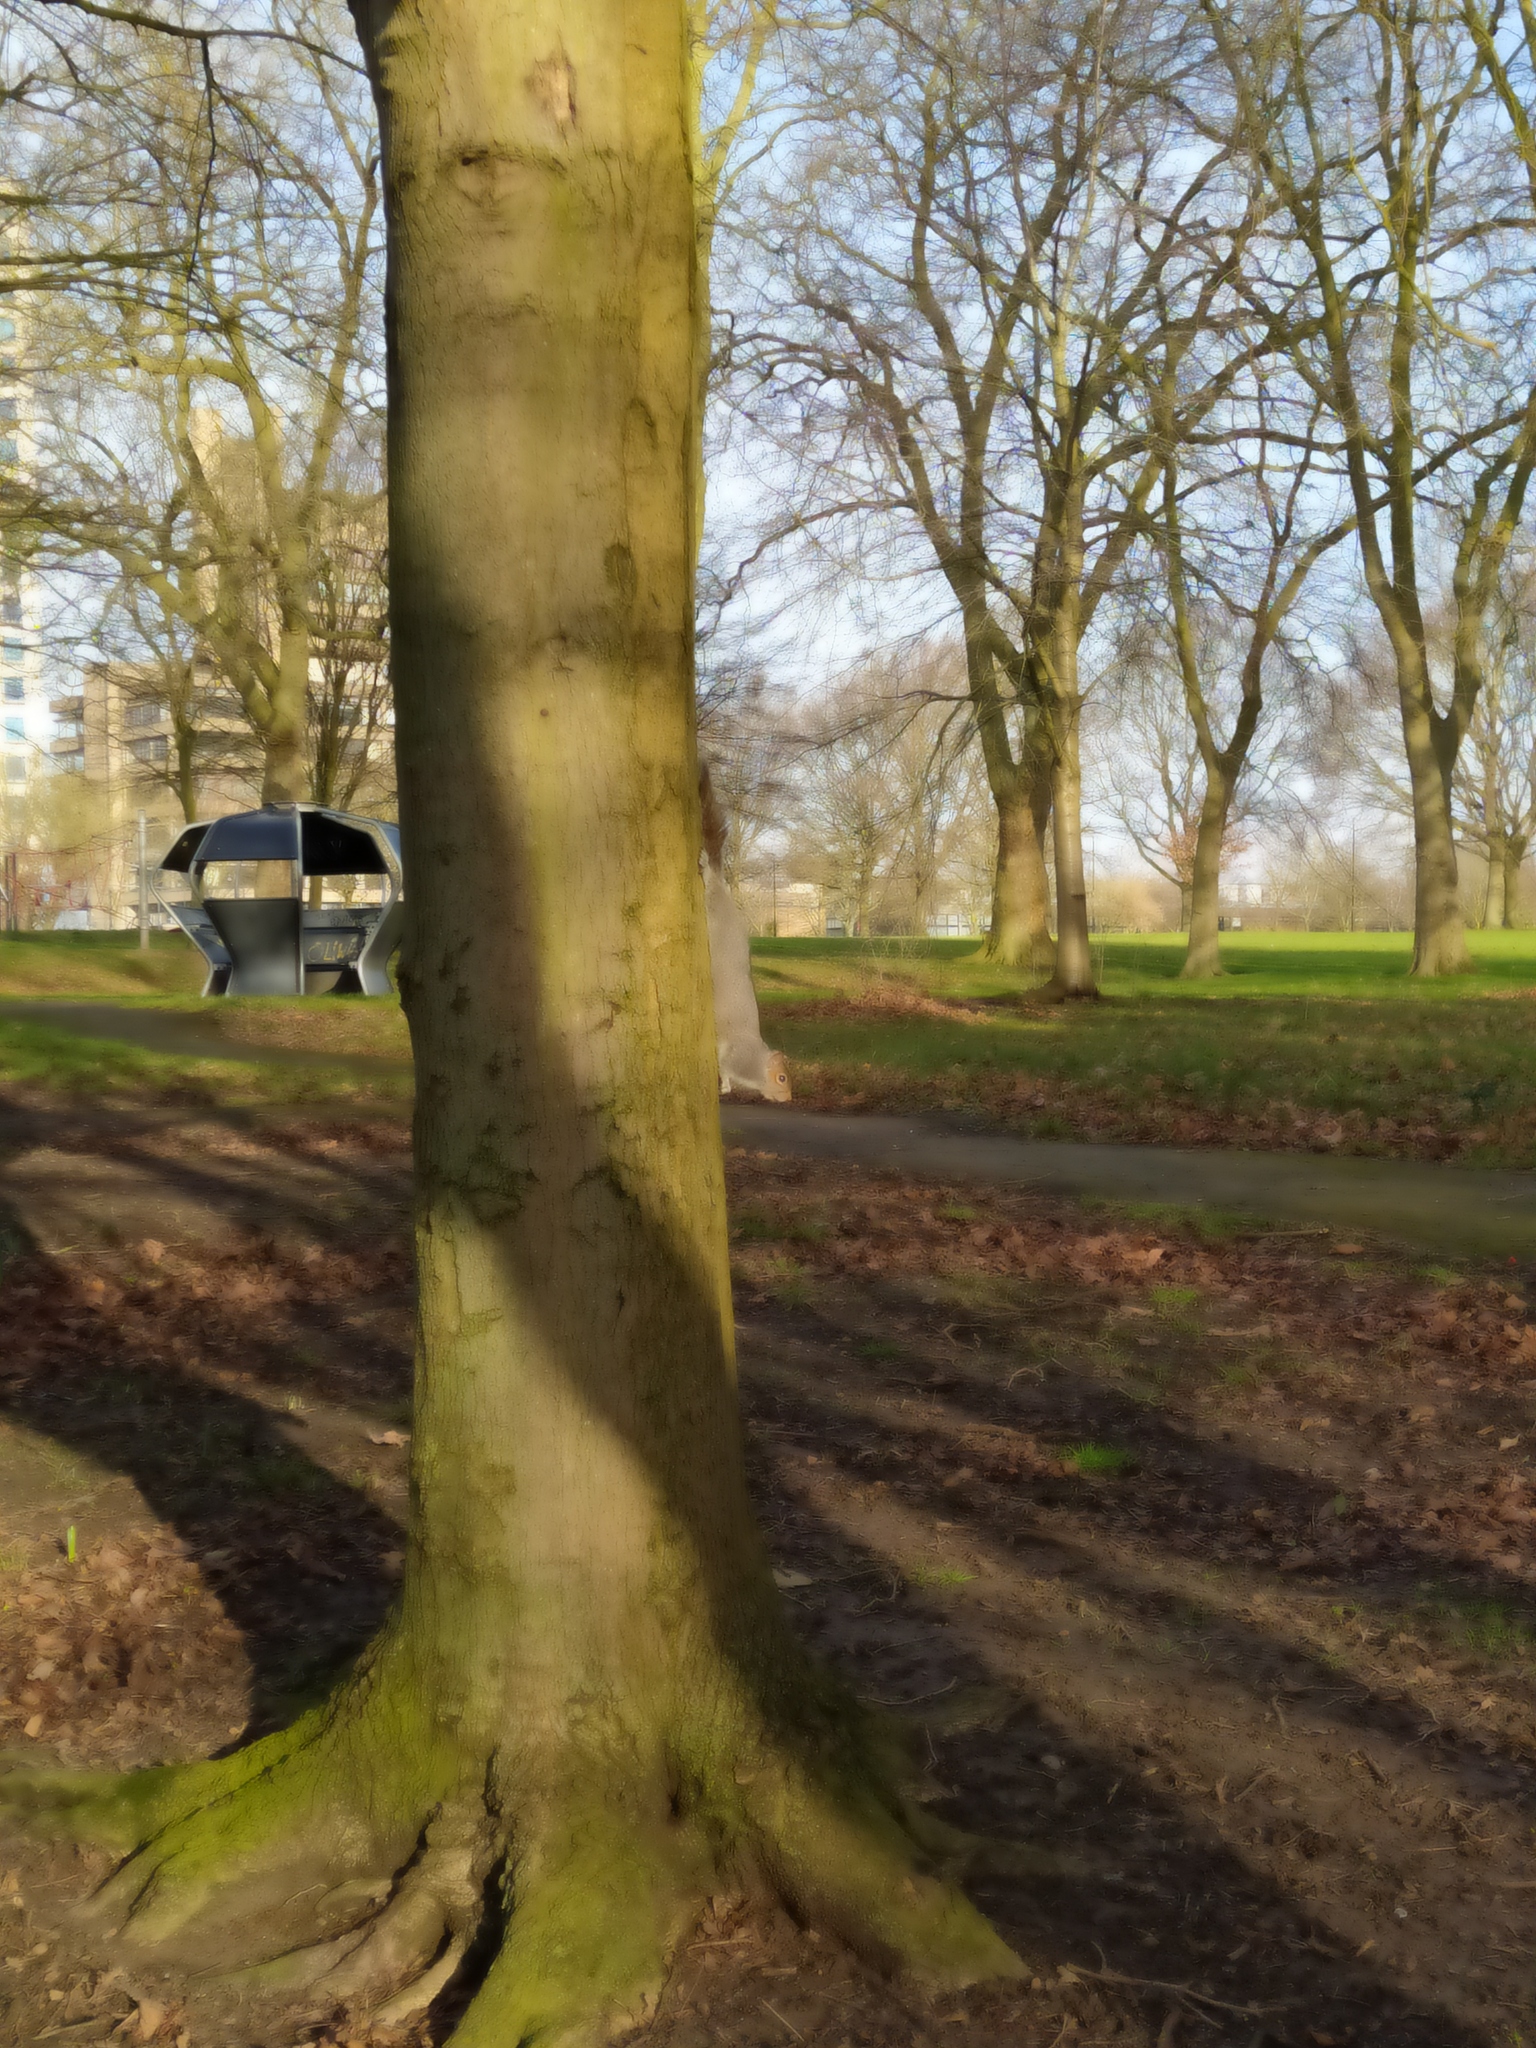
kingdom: Animalia
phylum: Chordata
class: Mammalia
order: Rodentia
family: Sciuridae
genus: Sciurus
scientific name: Sciurus carolinensis
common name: Eastern gray squirrel
